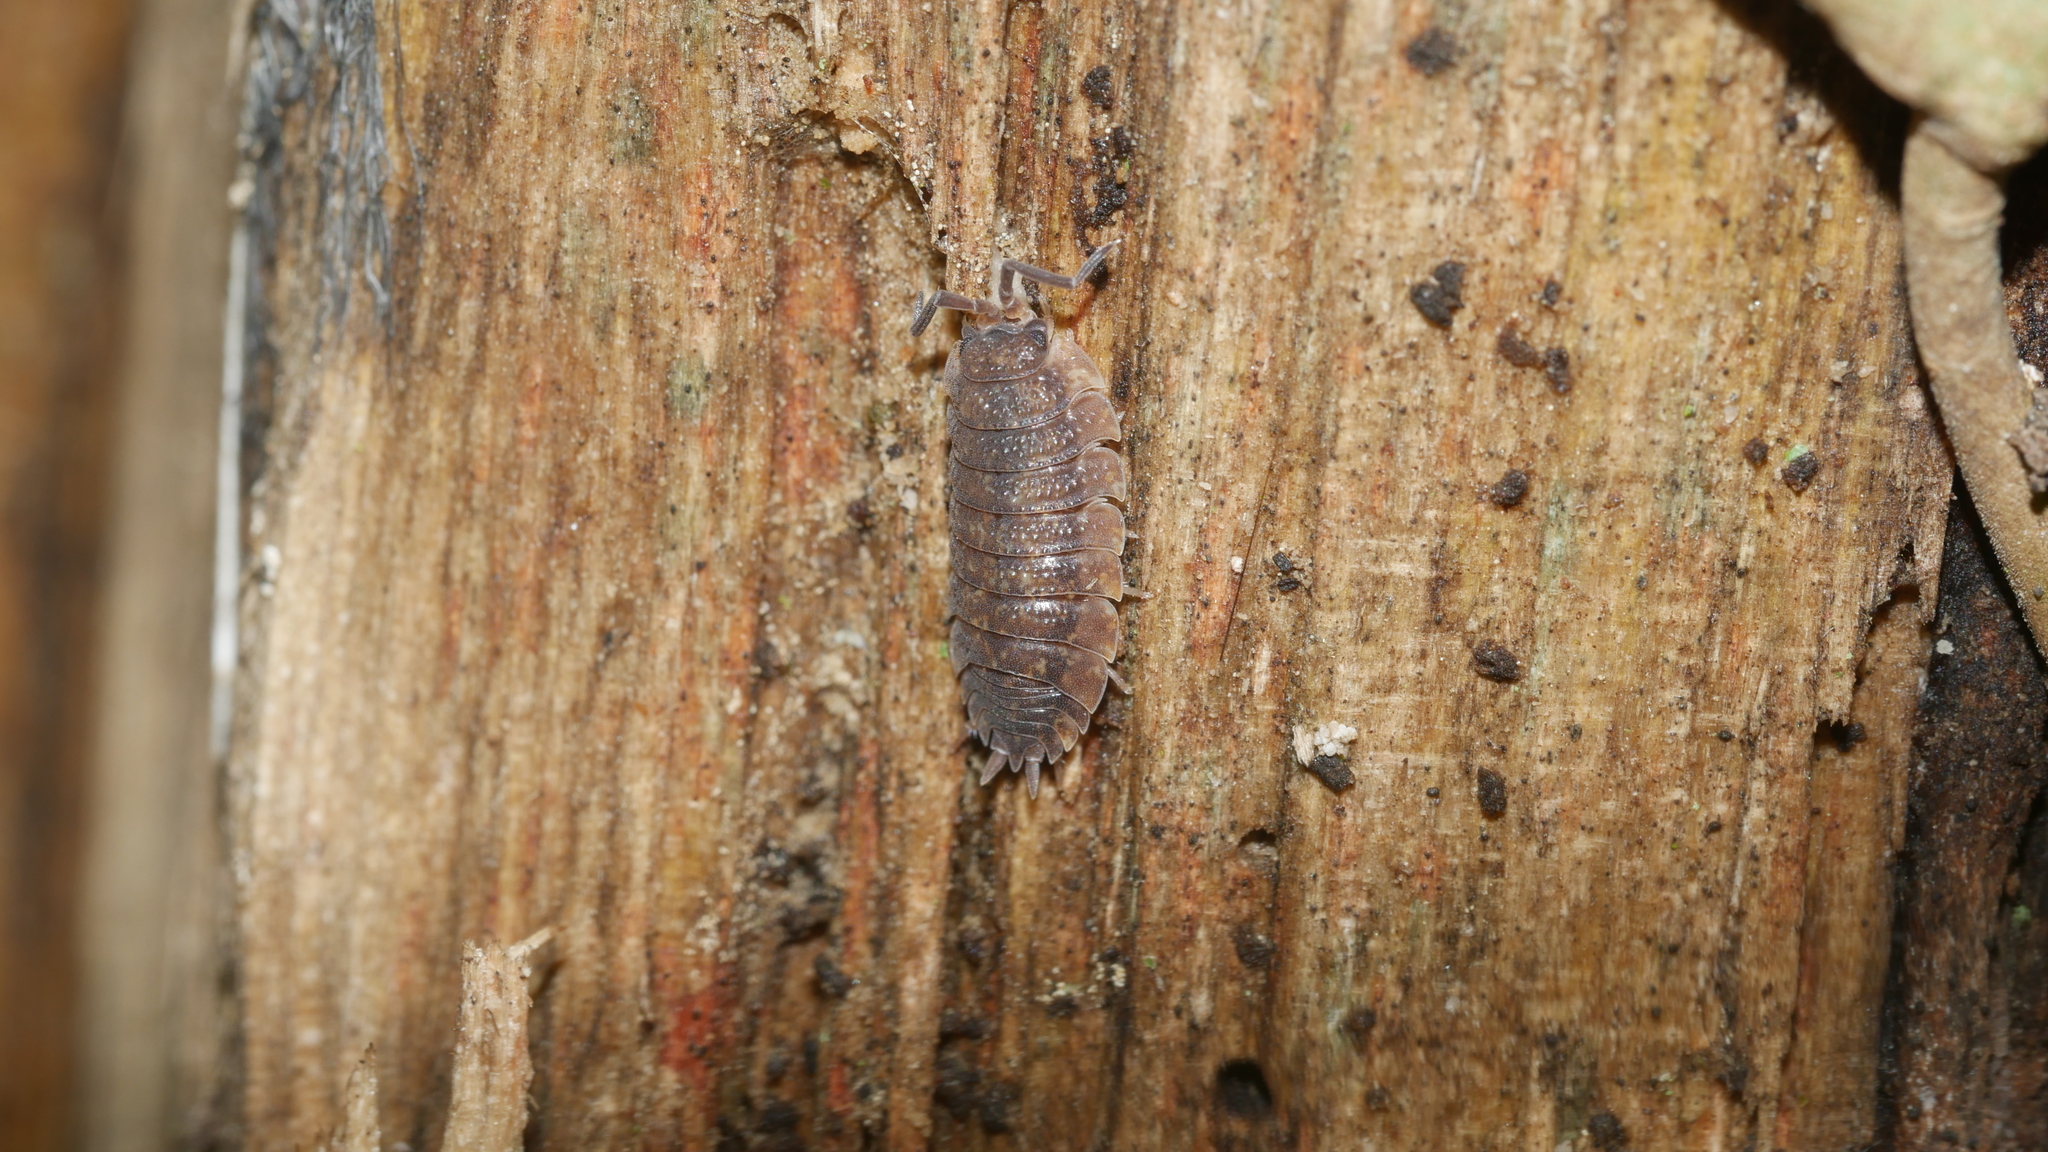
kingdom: Animalia
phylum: Arthropoda
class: Malacostraca
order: Isopoda
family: Porcellionidae
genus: Porcellio
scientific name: Porcellio scaber
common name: Common rough woodlouse
